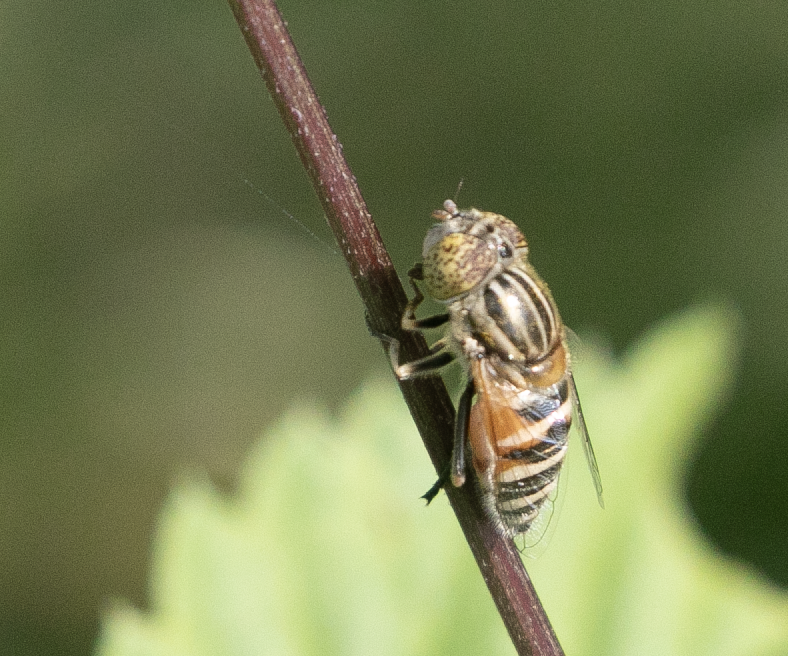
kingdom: Animalia
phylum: Arthropoda
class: Insecta
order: Diptera
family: Syrphidae
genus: Eristalinus
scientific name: Eristalinus megacephalus
